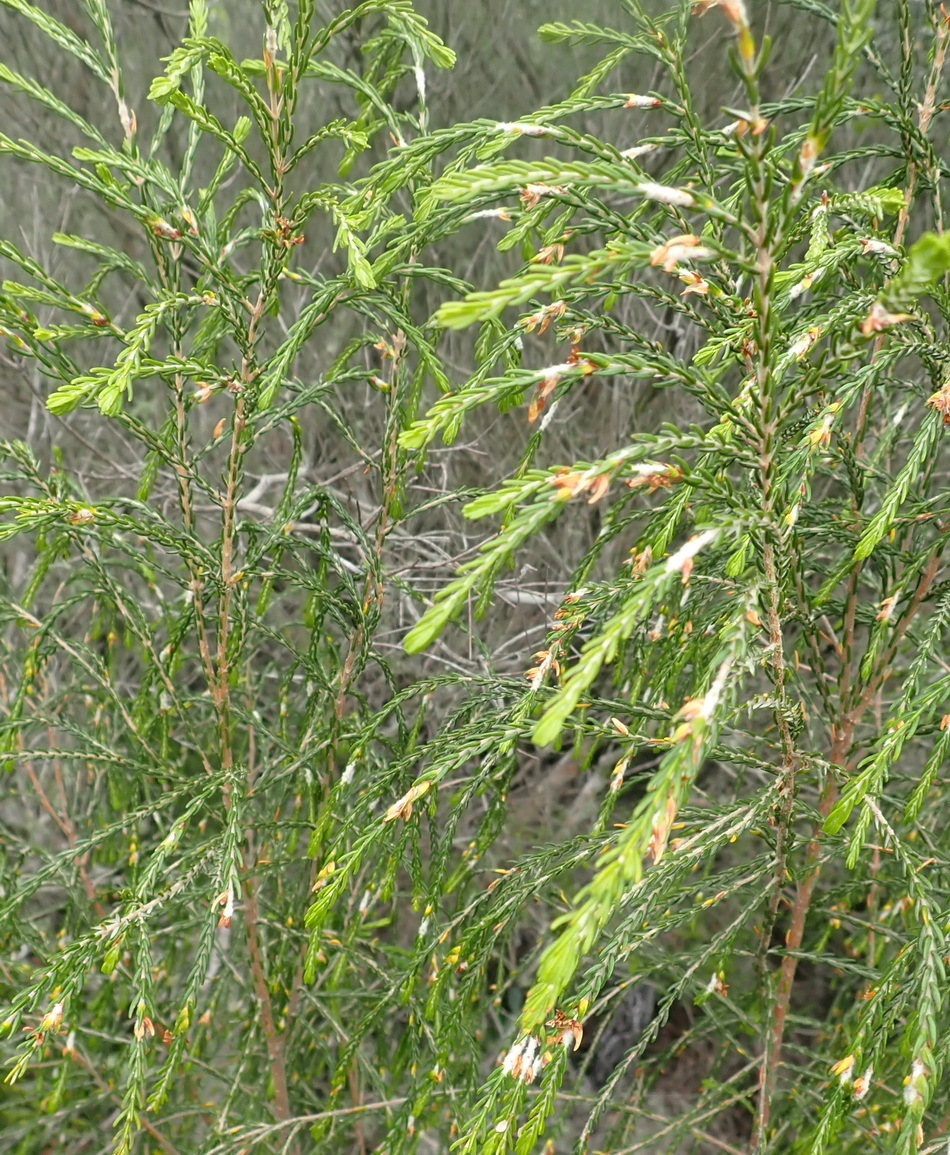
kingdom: Plantae
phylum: Tracheophyta
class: Magnoliopsida
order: Malvales
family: Thymelaeaceae
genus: Passerina
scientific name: Passerina rubra
